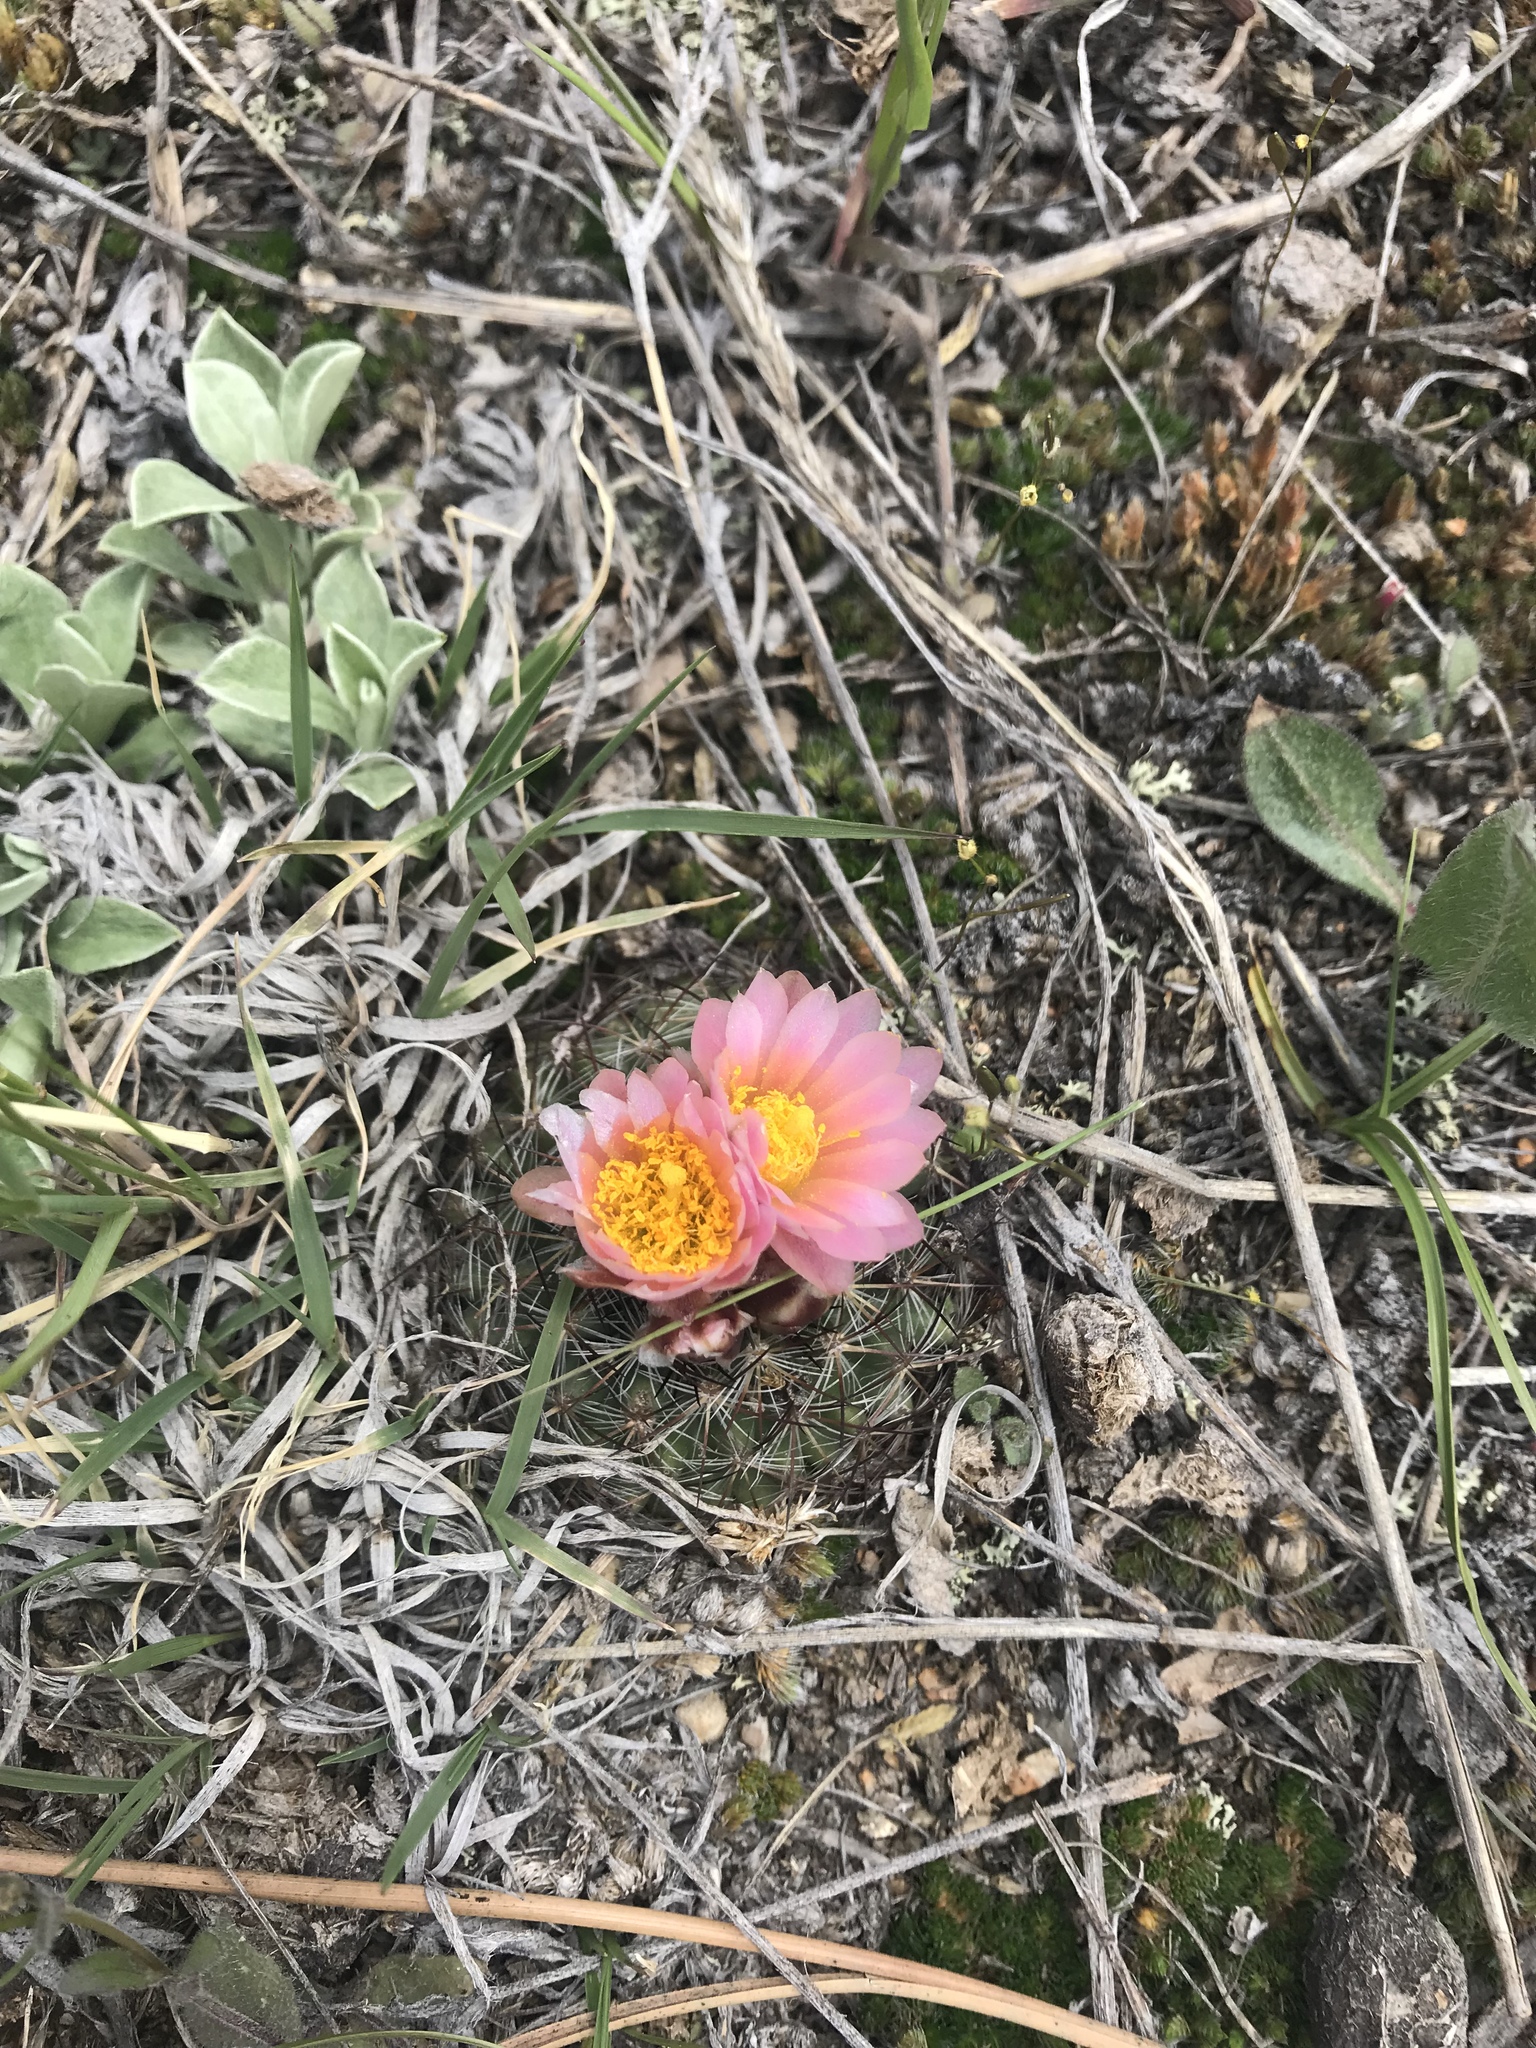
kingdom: Plantae
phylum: Tracheophyta
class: Magnoliopsida
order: Caryophyllales
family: Cactaceae
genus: Pediocactus
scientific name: Pediocactus simpsonii
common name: Simpson's hedgehog cactus
